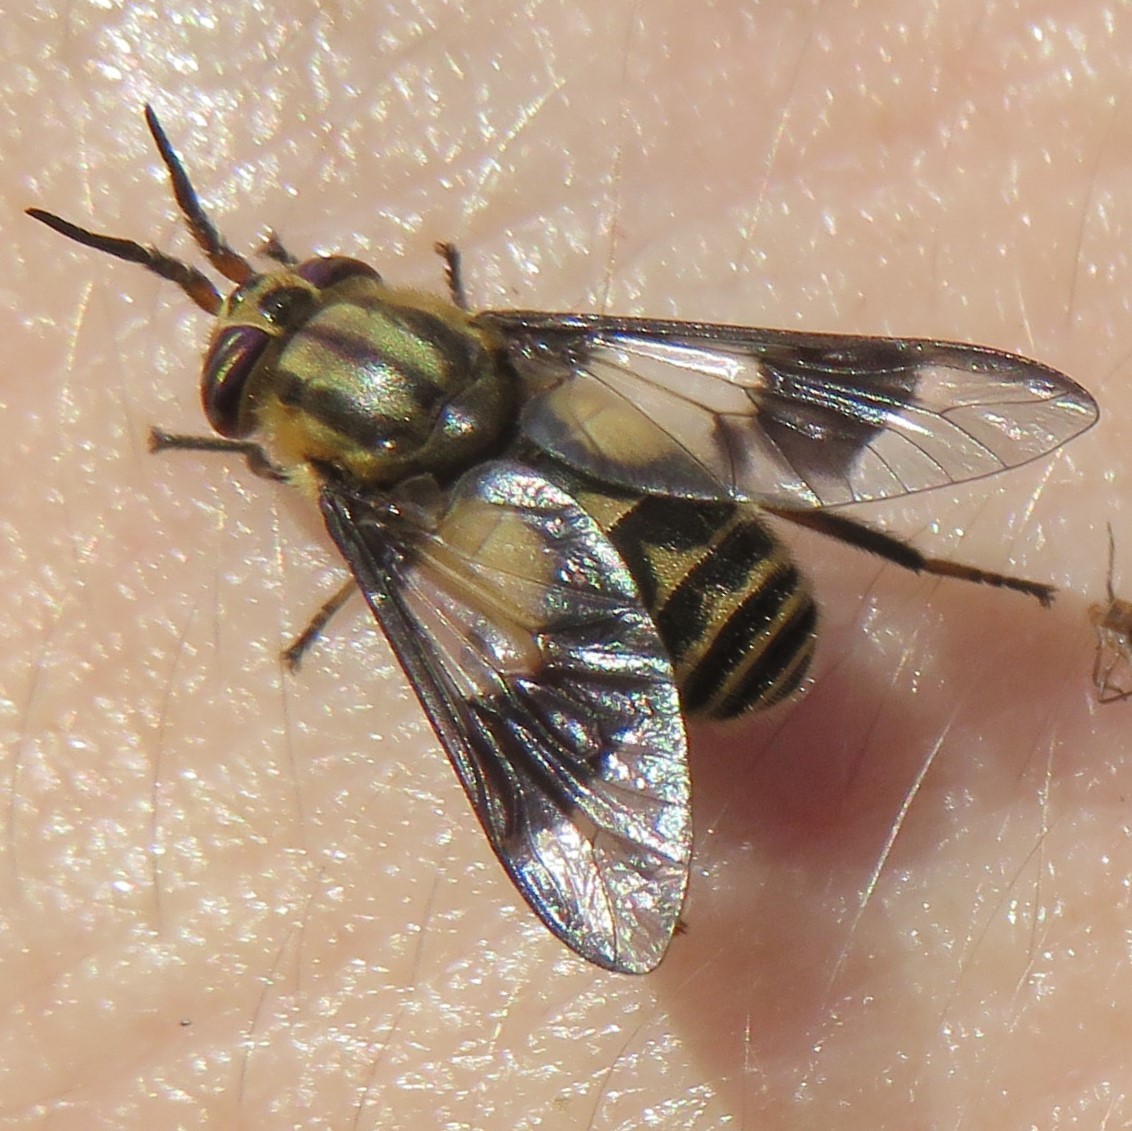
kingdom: Animalia
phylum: Arthropoda
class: Insecta
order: Diptera
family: Tabanidae
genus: Chrysops
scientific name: Chrysops sackeni
